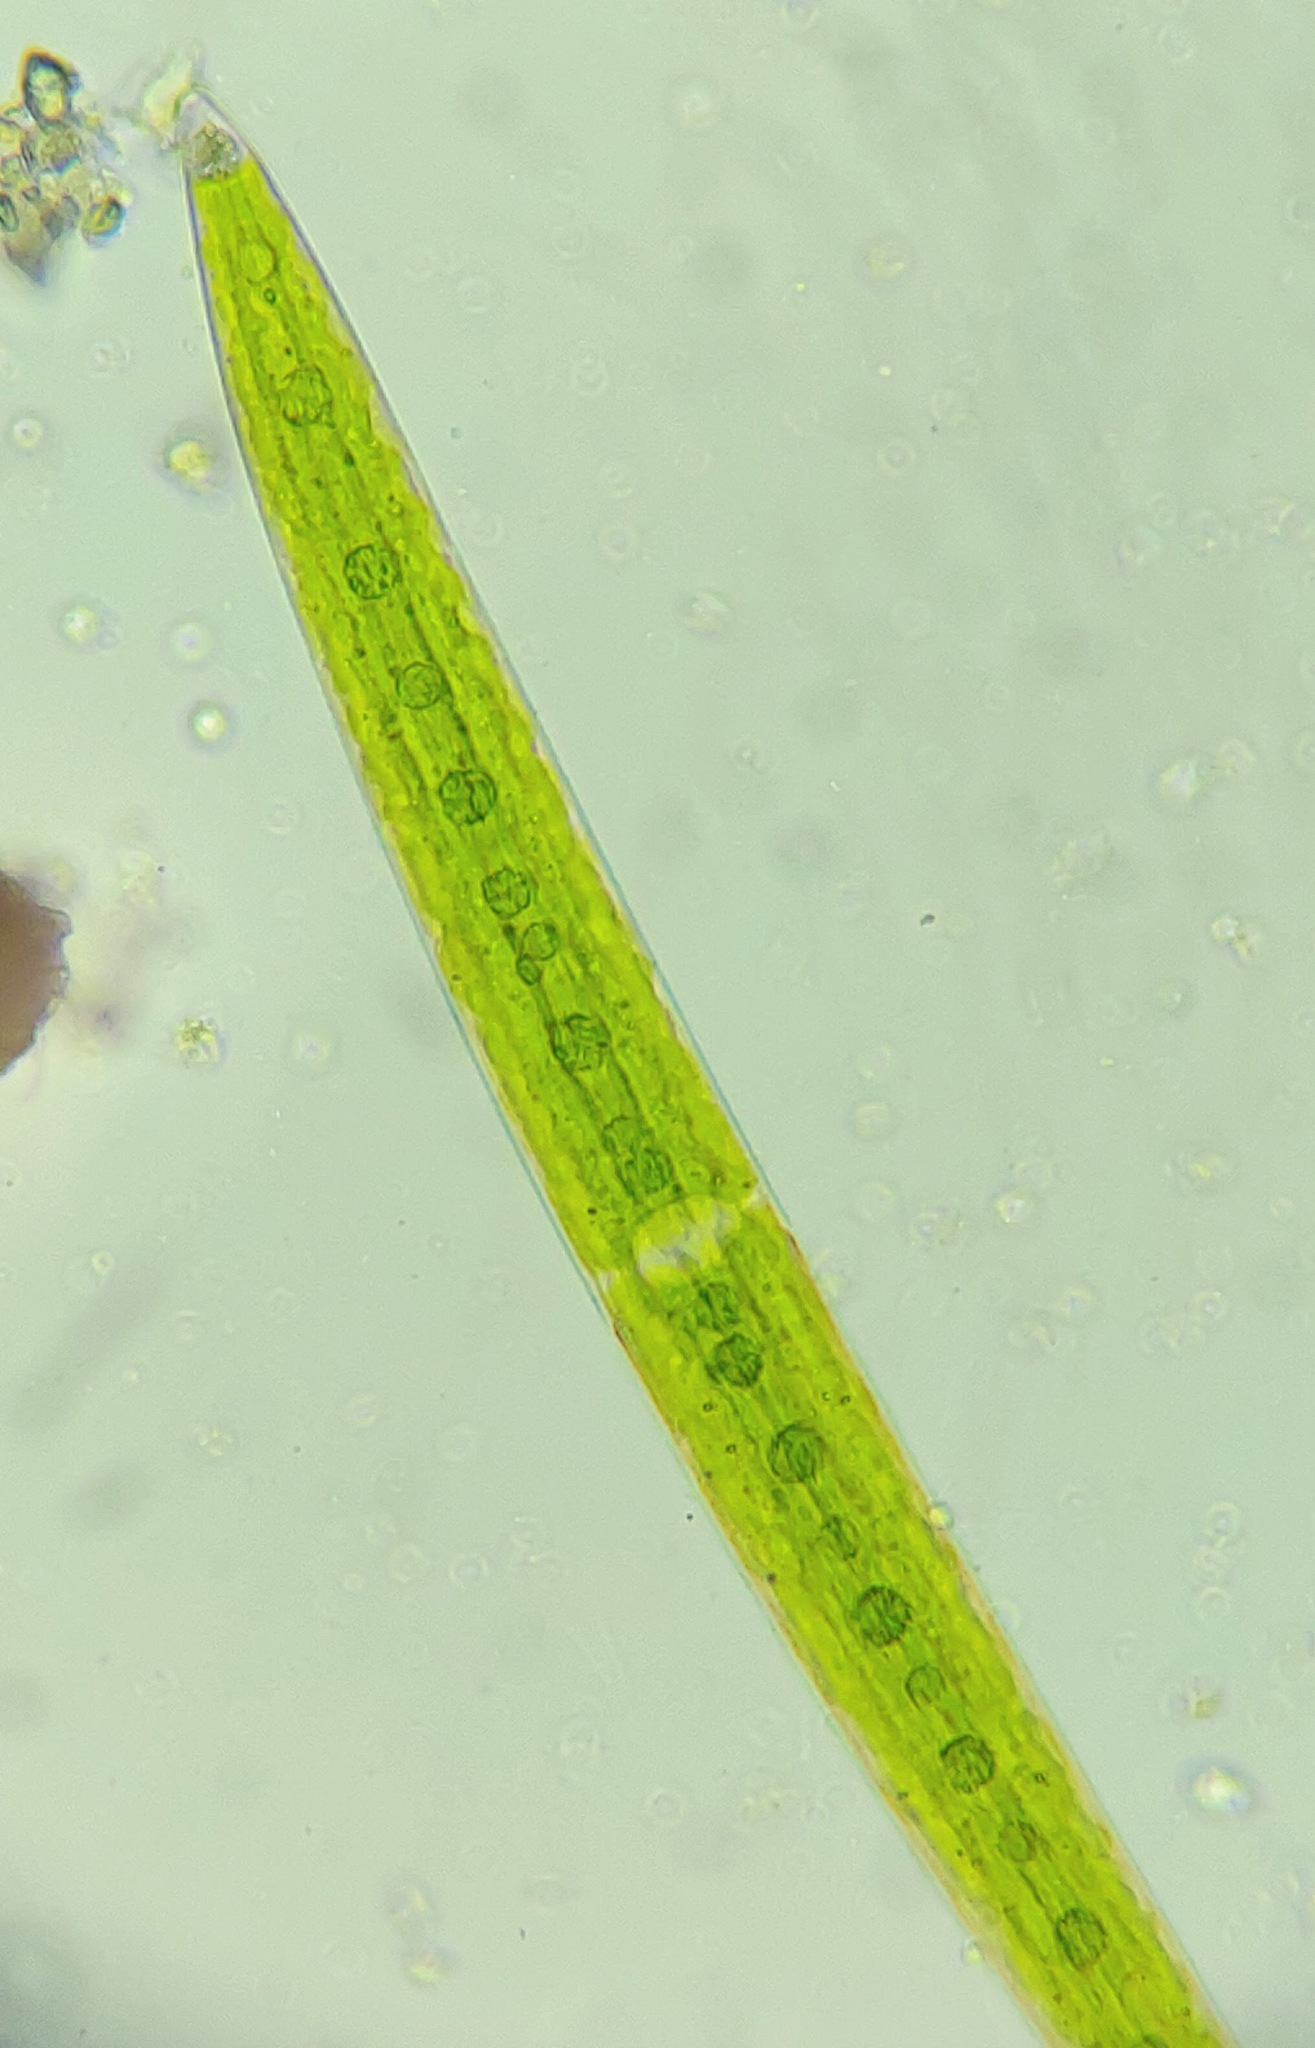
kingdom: Plantae
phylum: Charophyta
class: Zygnematophyceae
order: Zygnematales
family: Closteriaceae
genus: Closterium
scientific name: Closterium acerosum
